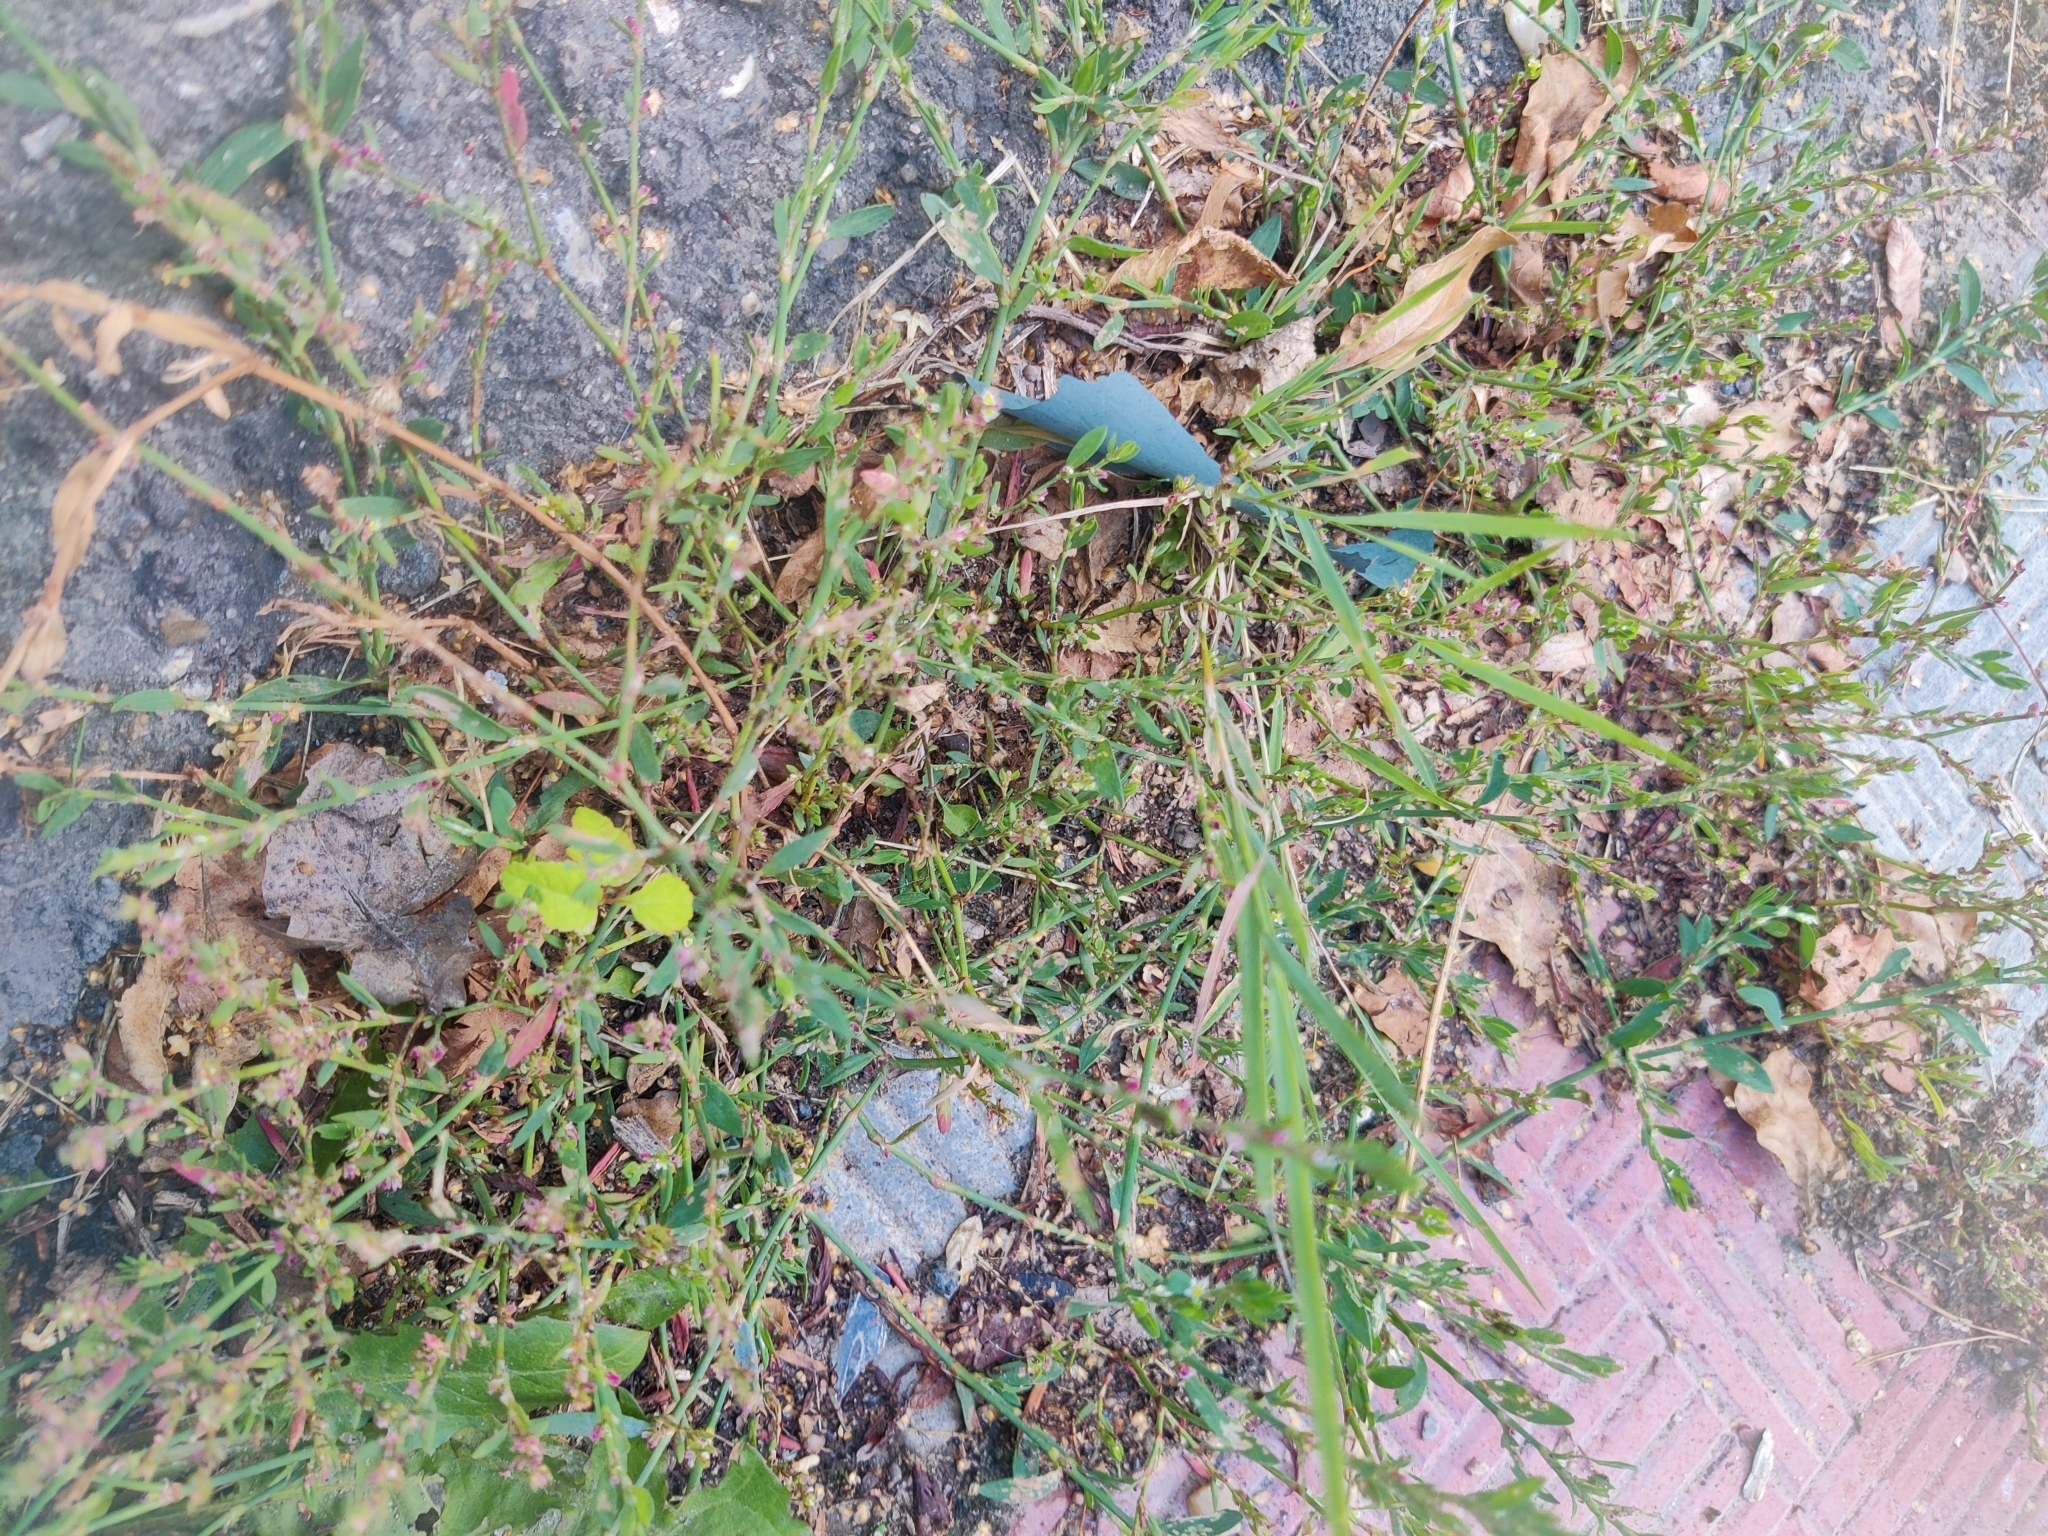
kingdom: Plantae
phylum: Tracheophyta
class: Magnoliopsida
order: Caryophyllales
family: Polygonaceae
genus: Polygonum
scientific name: Polygonum
